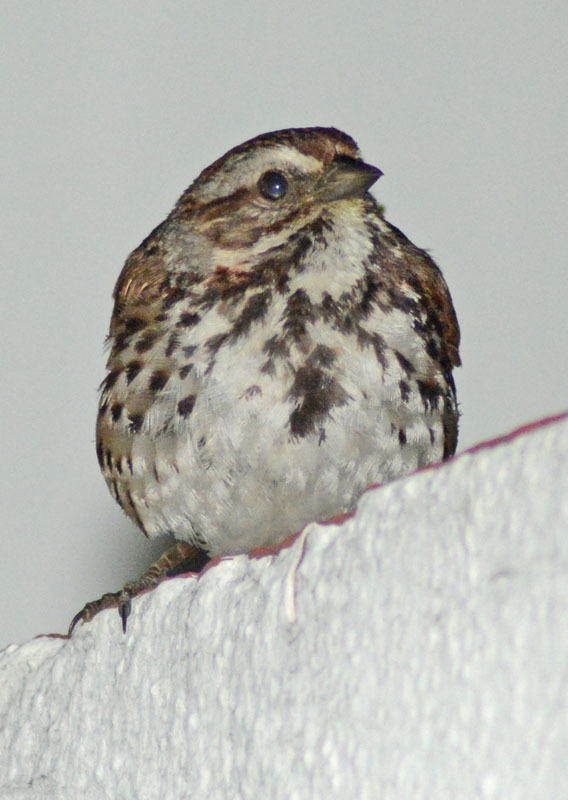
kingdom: Animalia
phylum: Chordata
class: Aves
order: Passeriformes
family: Passerellidae
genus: Melospiza
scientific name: Melospiza melodia
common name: Song sparrow
